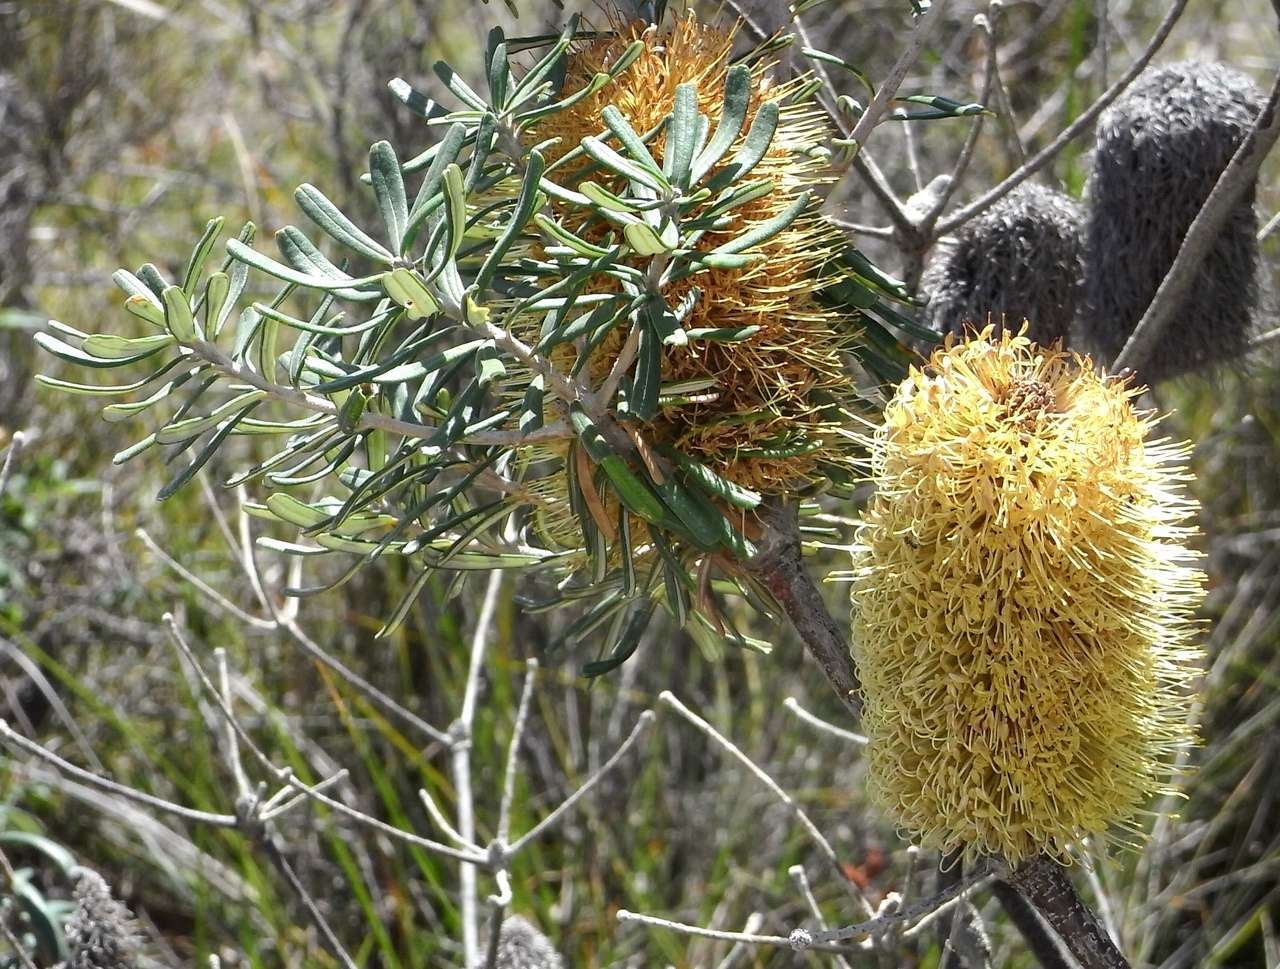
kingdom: Plantae
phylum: Tracheophyta
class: Magnoliopsida
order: Proteales
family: Proteaceae
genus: Banksia
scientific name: Banksia marginata
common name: Silver banksia
